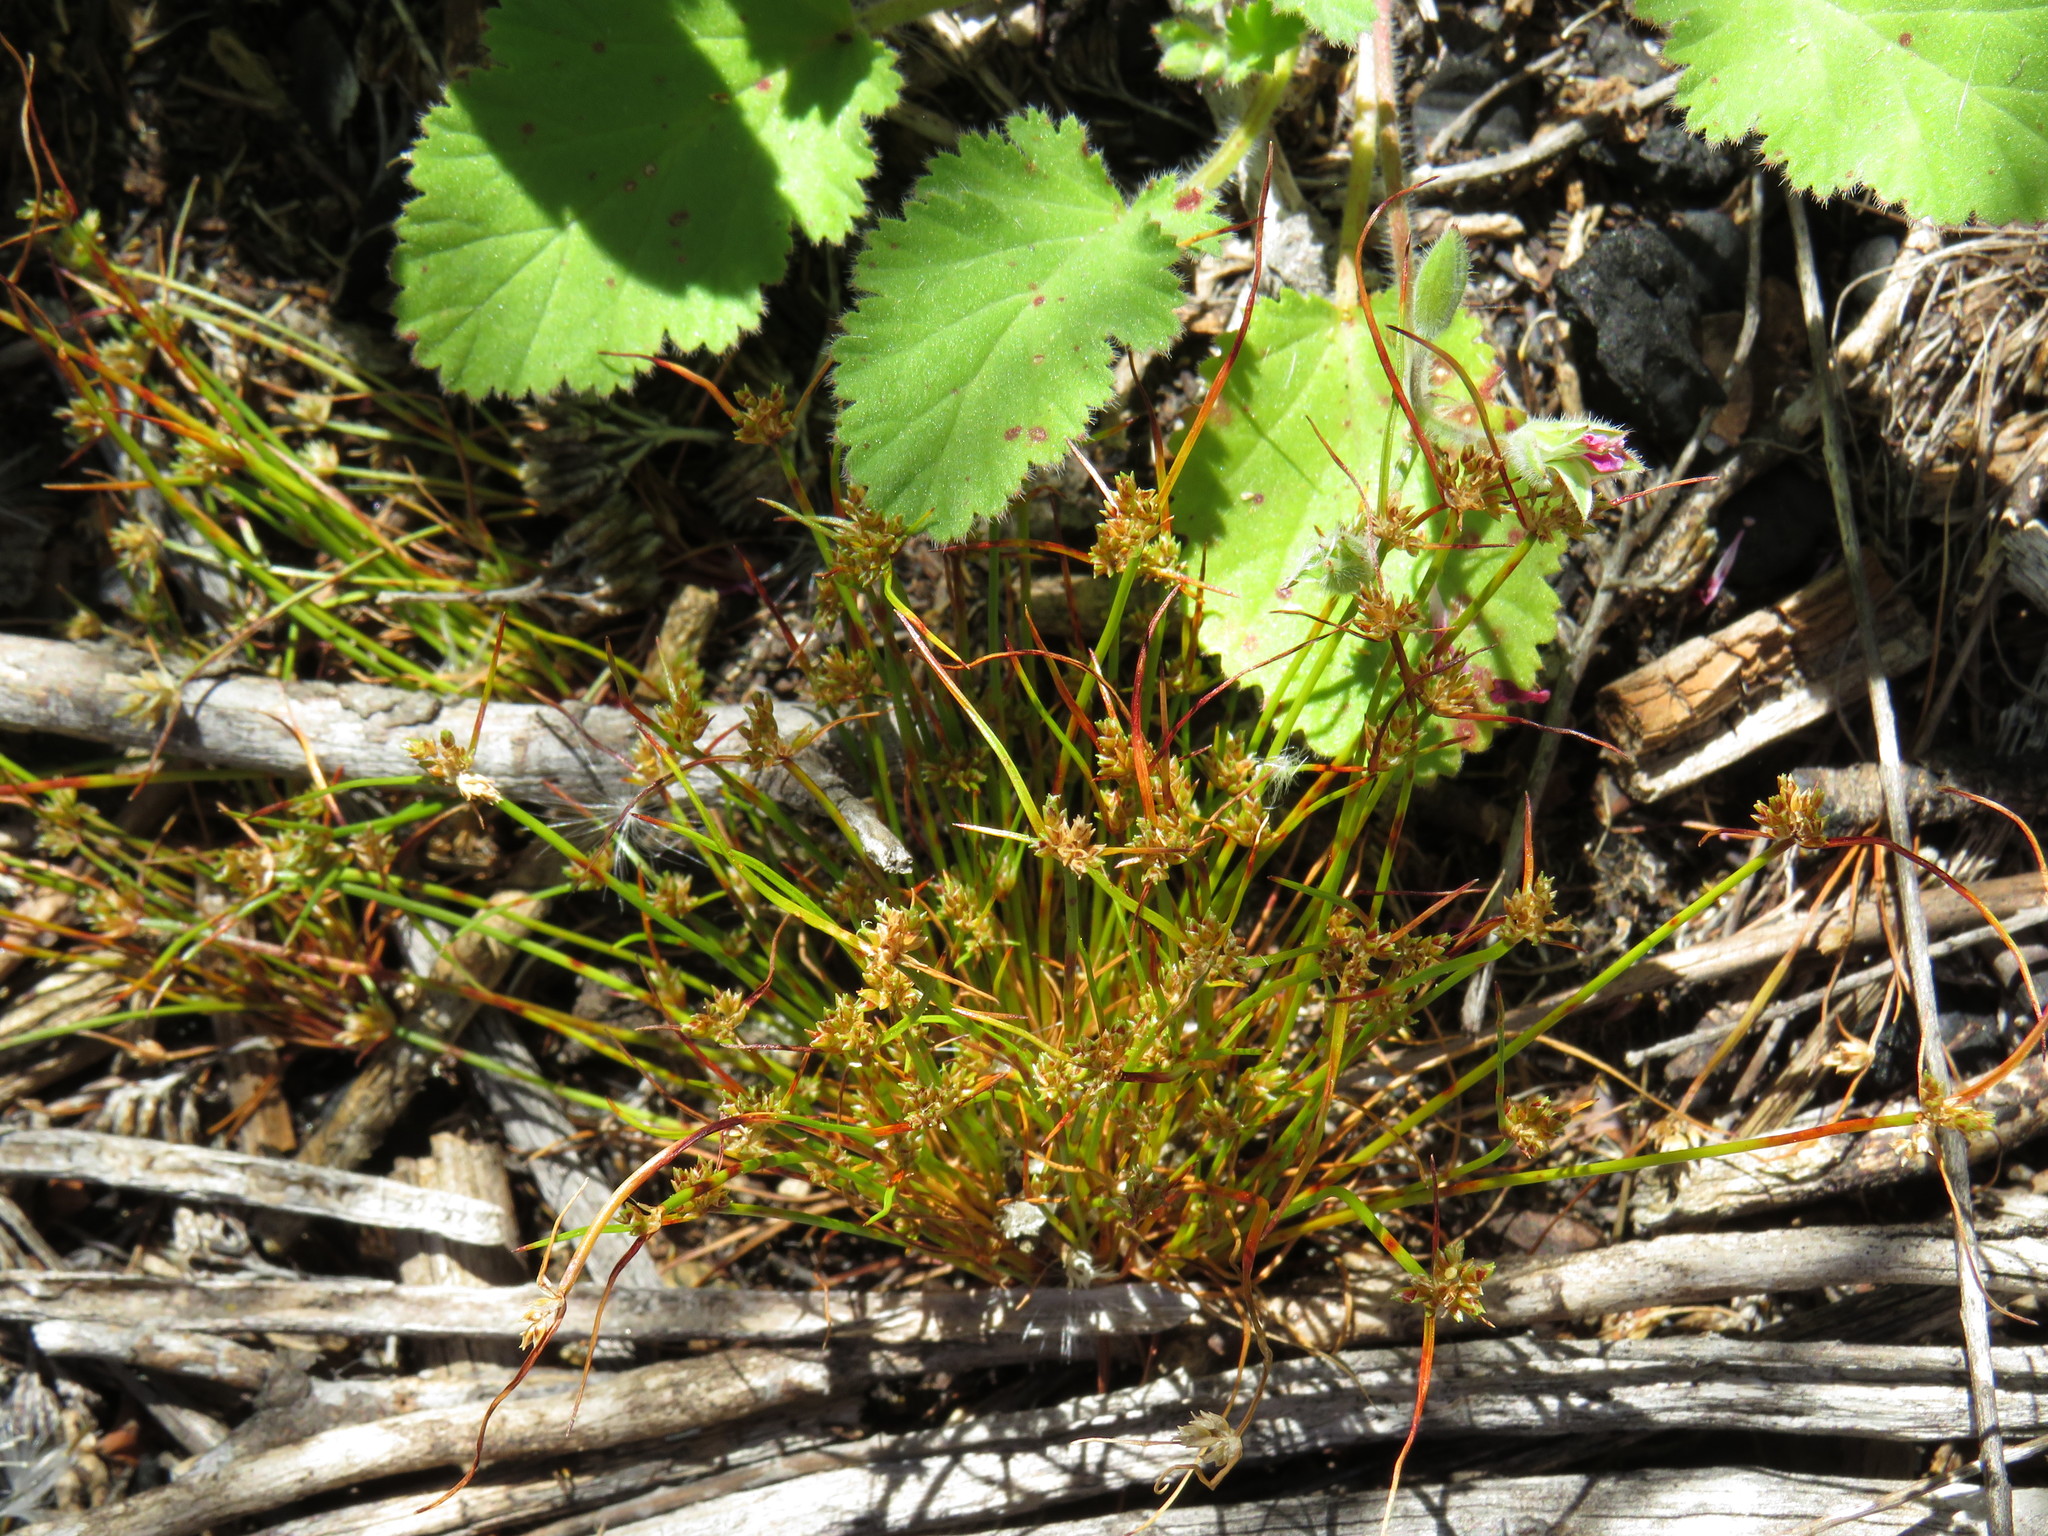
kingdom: Plantae
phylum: Tracheophyta
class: Liliopsida
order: Poales
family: Cyperaceae
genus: Isolepis
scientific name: Isolepis marginata
